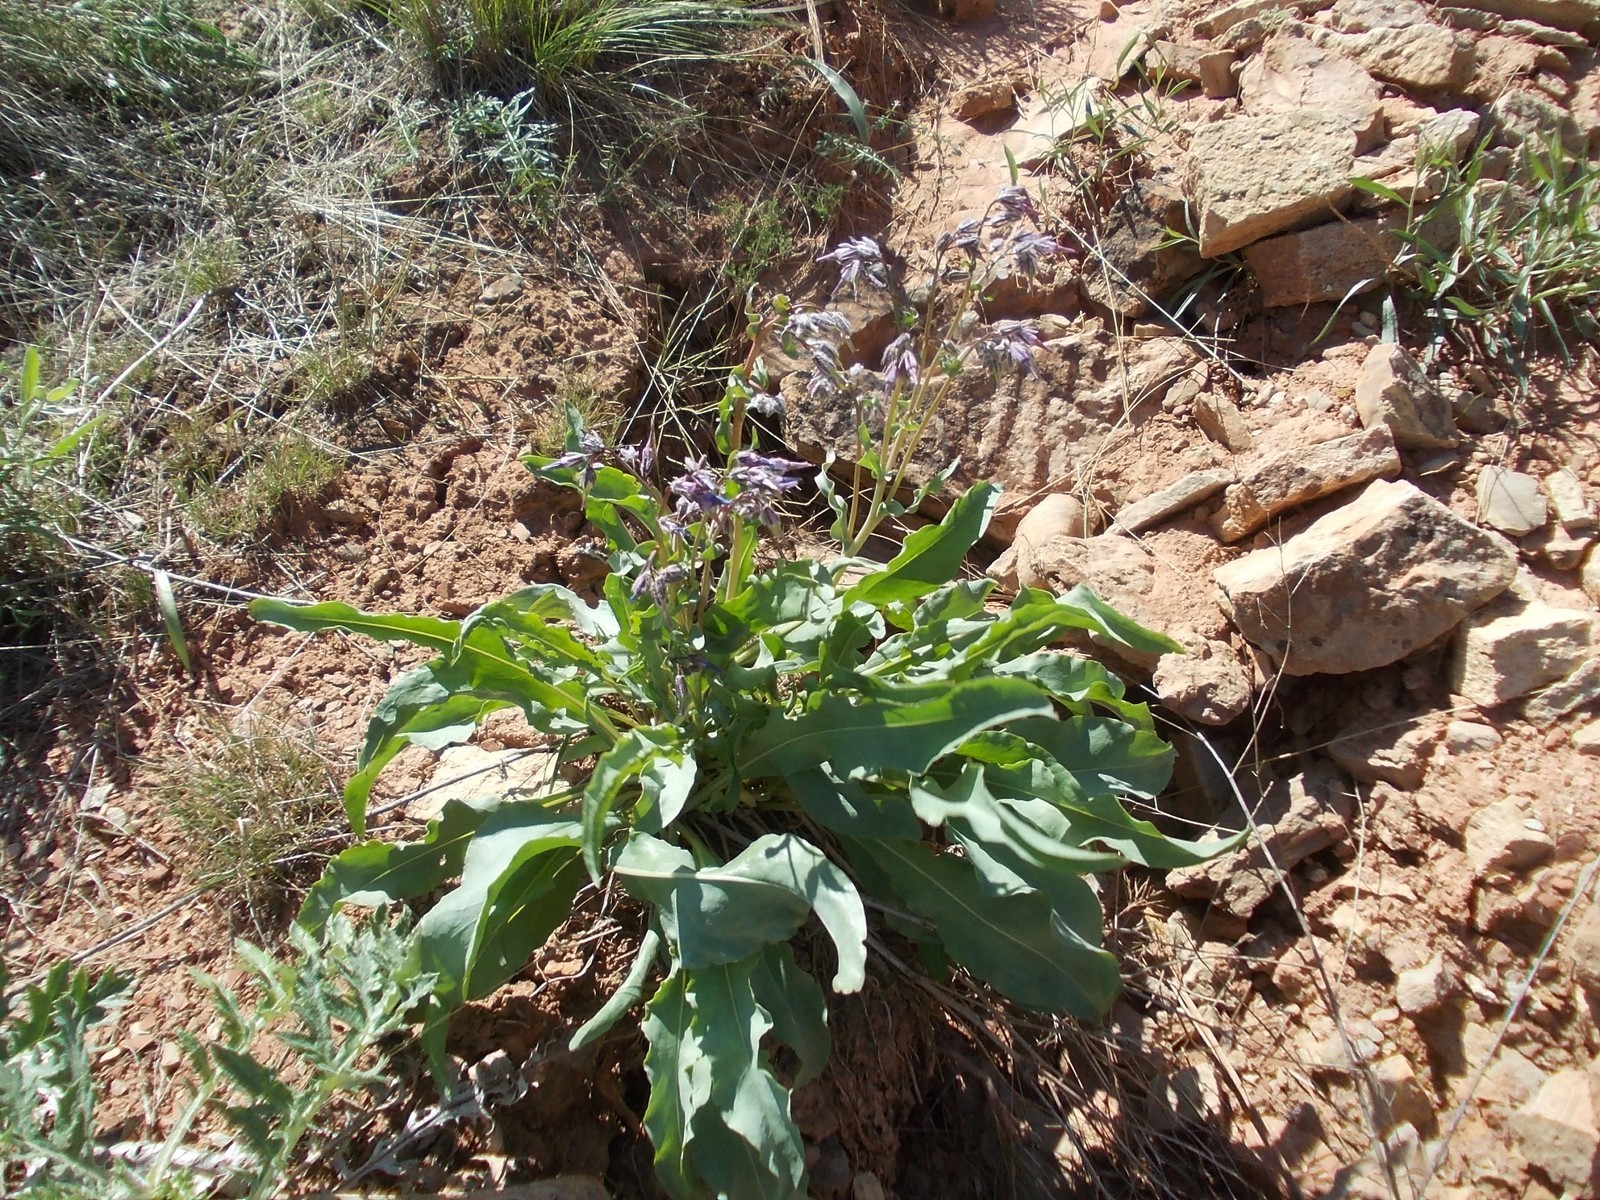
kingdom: Plantae
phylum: Tracheophyta
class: Magnoliopsida
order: Boraginales
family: Boraginaceae
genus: Rindera
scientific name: Rindera tetraspis
